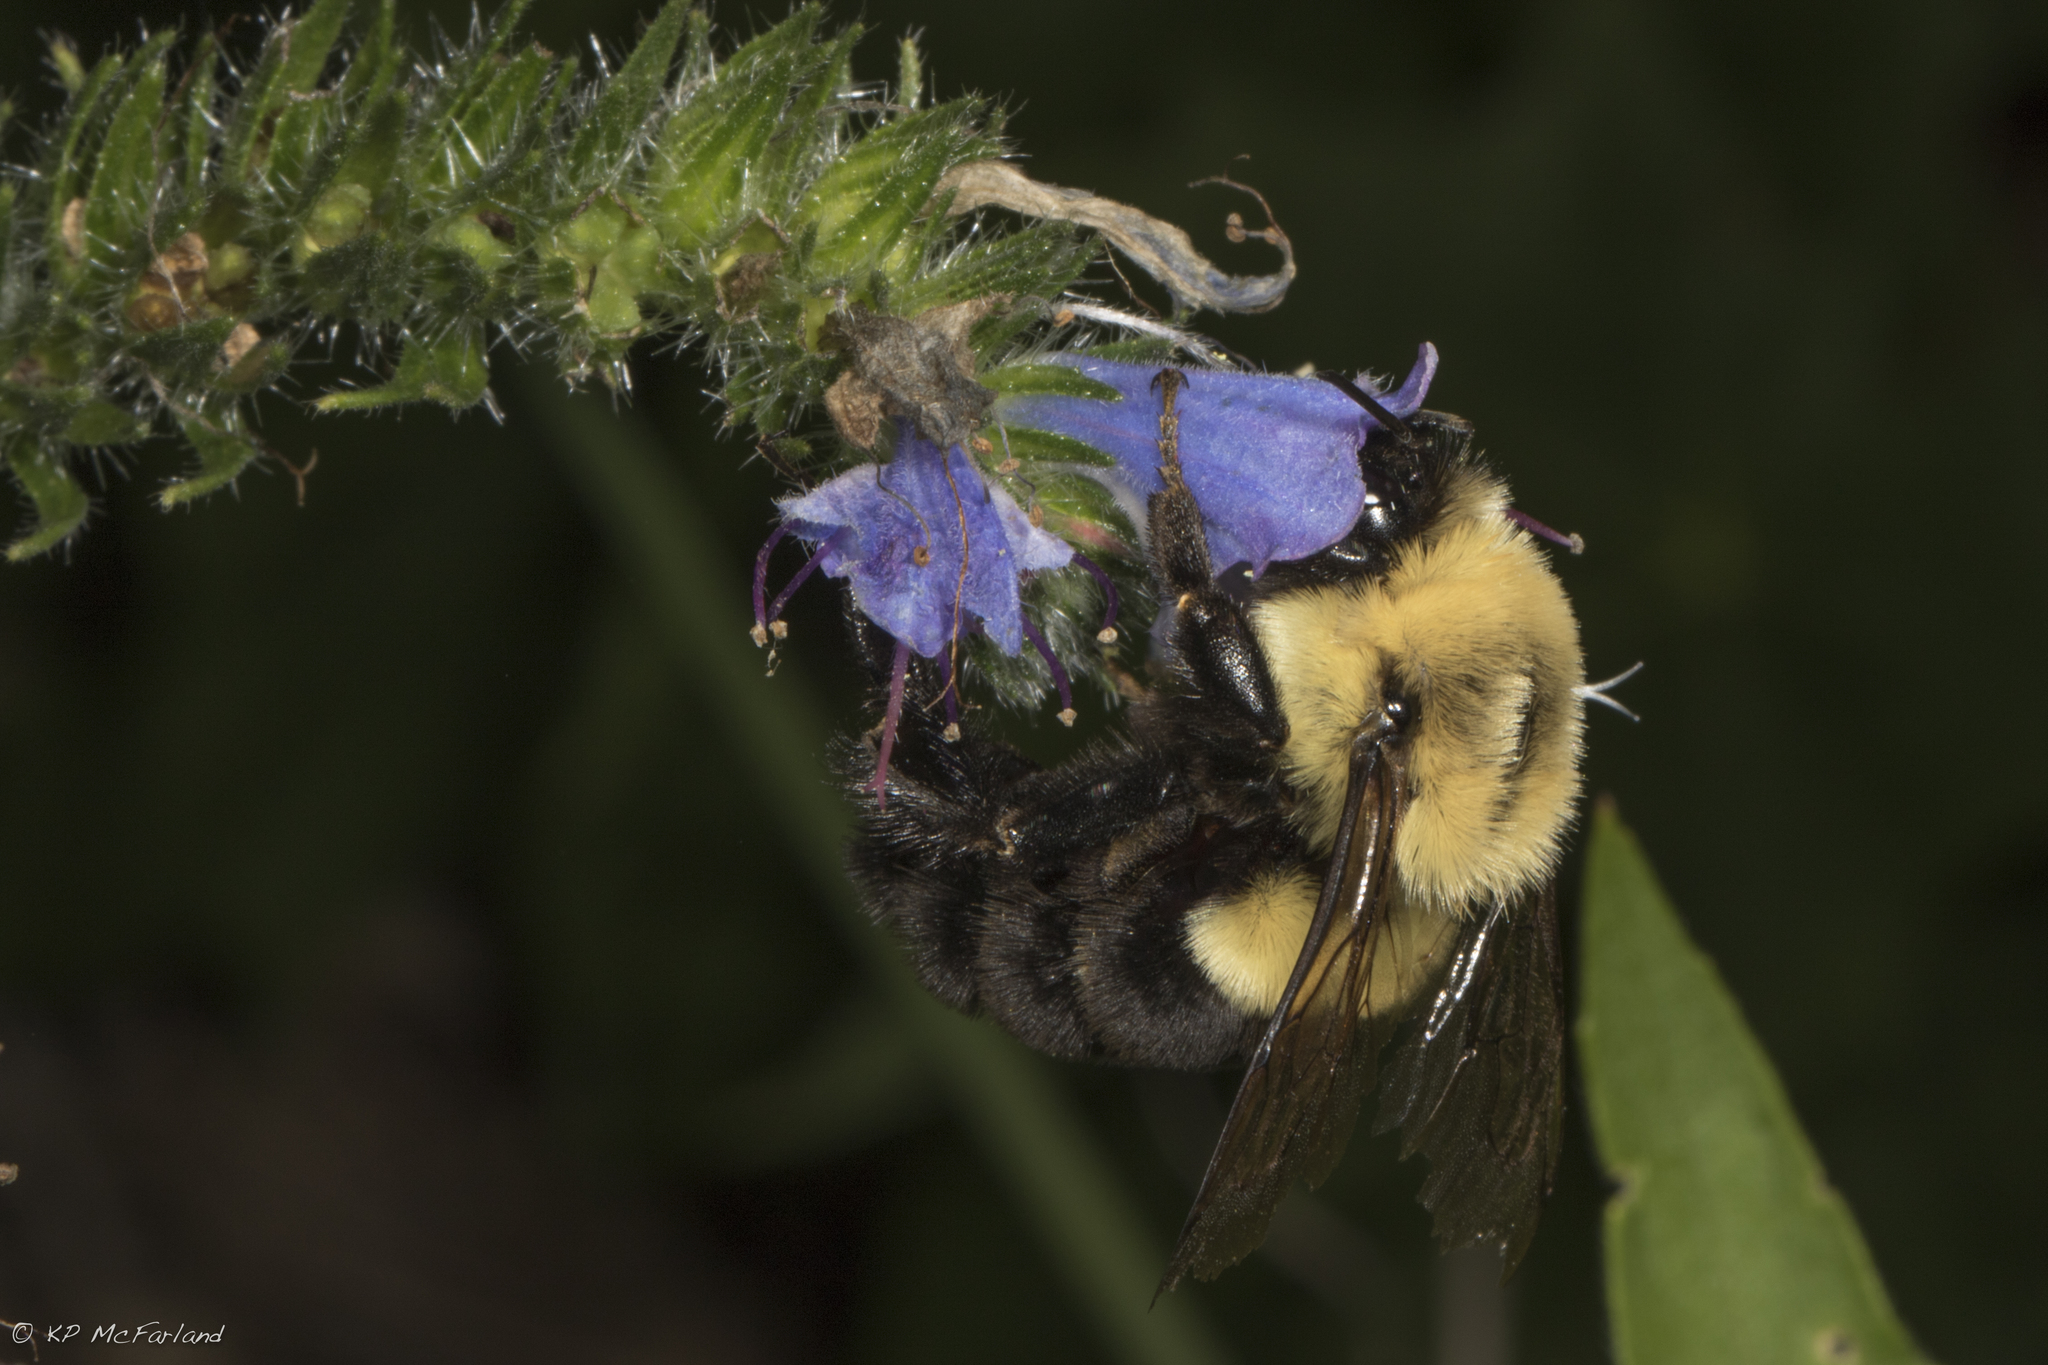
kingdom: Animalia
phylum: Arthropoda
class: Insecta
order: Hymenoptera
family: Apidae
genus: Bombus
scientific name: Bombus impatiens
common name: Common eastern bumble bee
